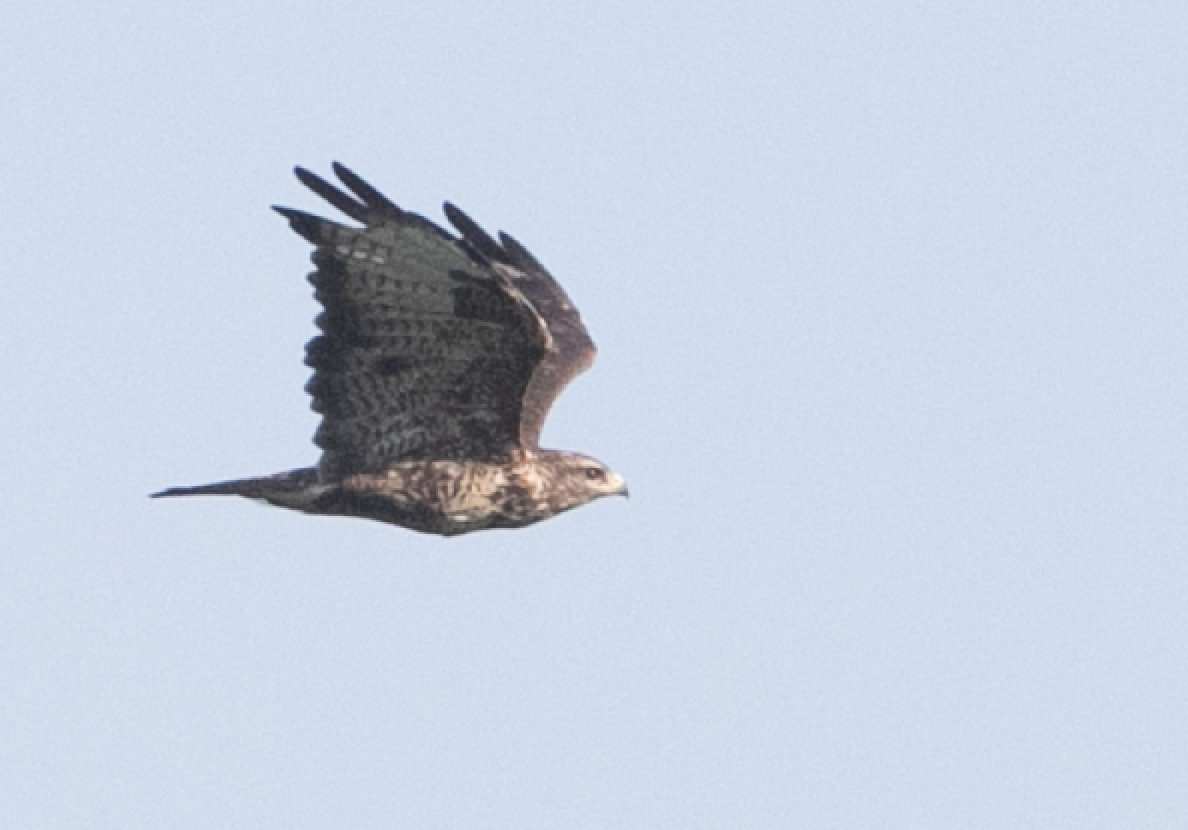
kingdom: Animalia
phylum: Chordata
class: Aves
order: Accipitriformes
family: Accipitridae
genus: Buteo
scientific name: Buteo buteo
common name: Common buzzard
